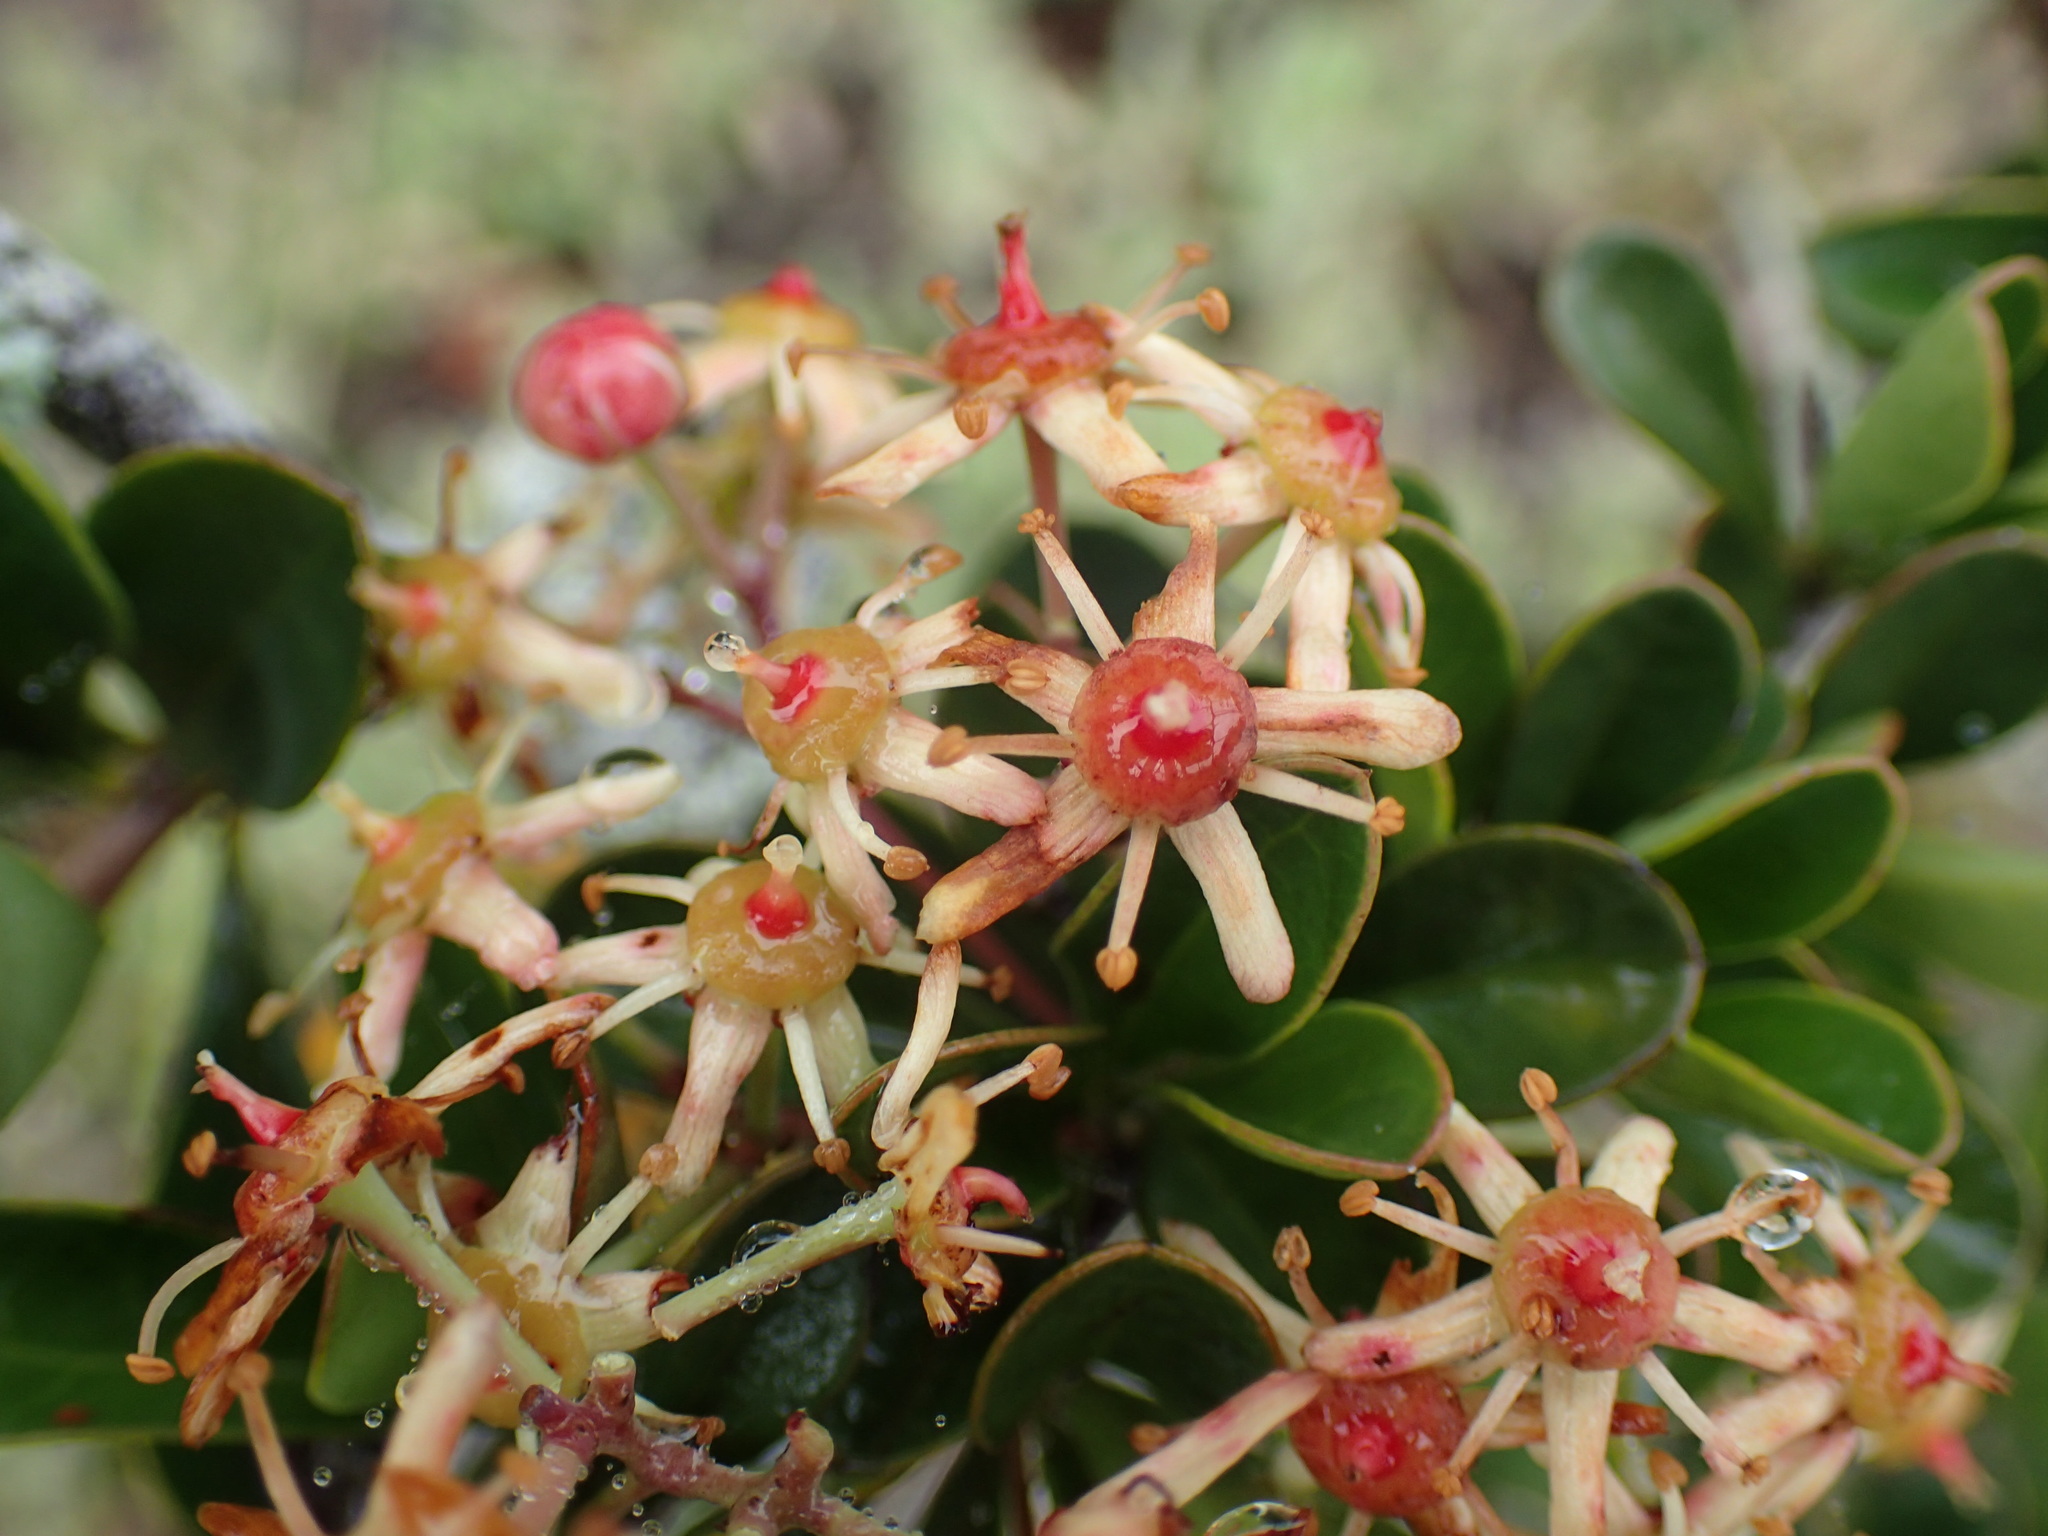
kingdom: Plantae
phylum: Tracheophyta
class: Magnoliopsida
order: Celastrales
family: Celastraceae
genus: Putterlickia
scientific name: Putterlickia pyracantha
